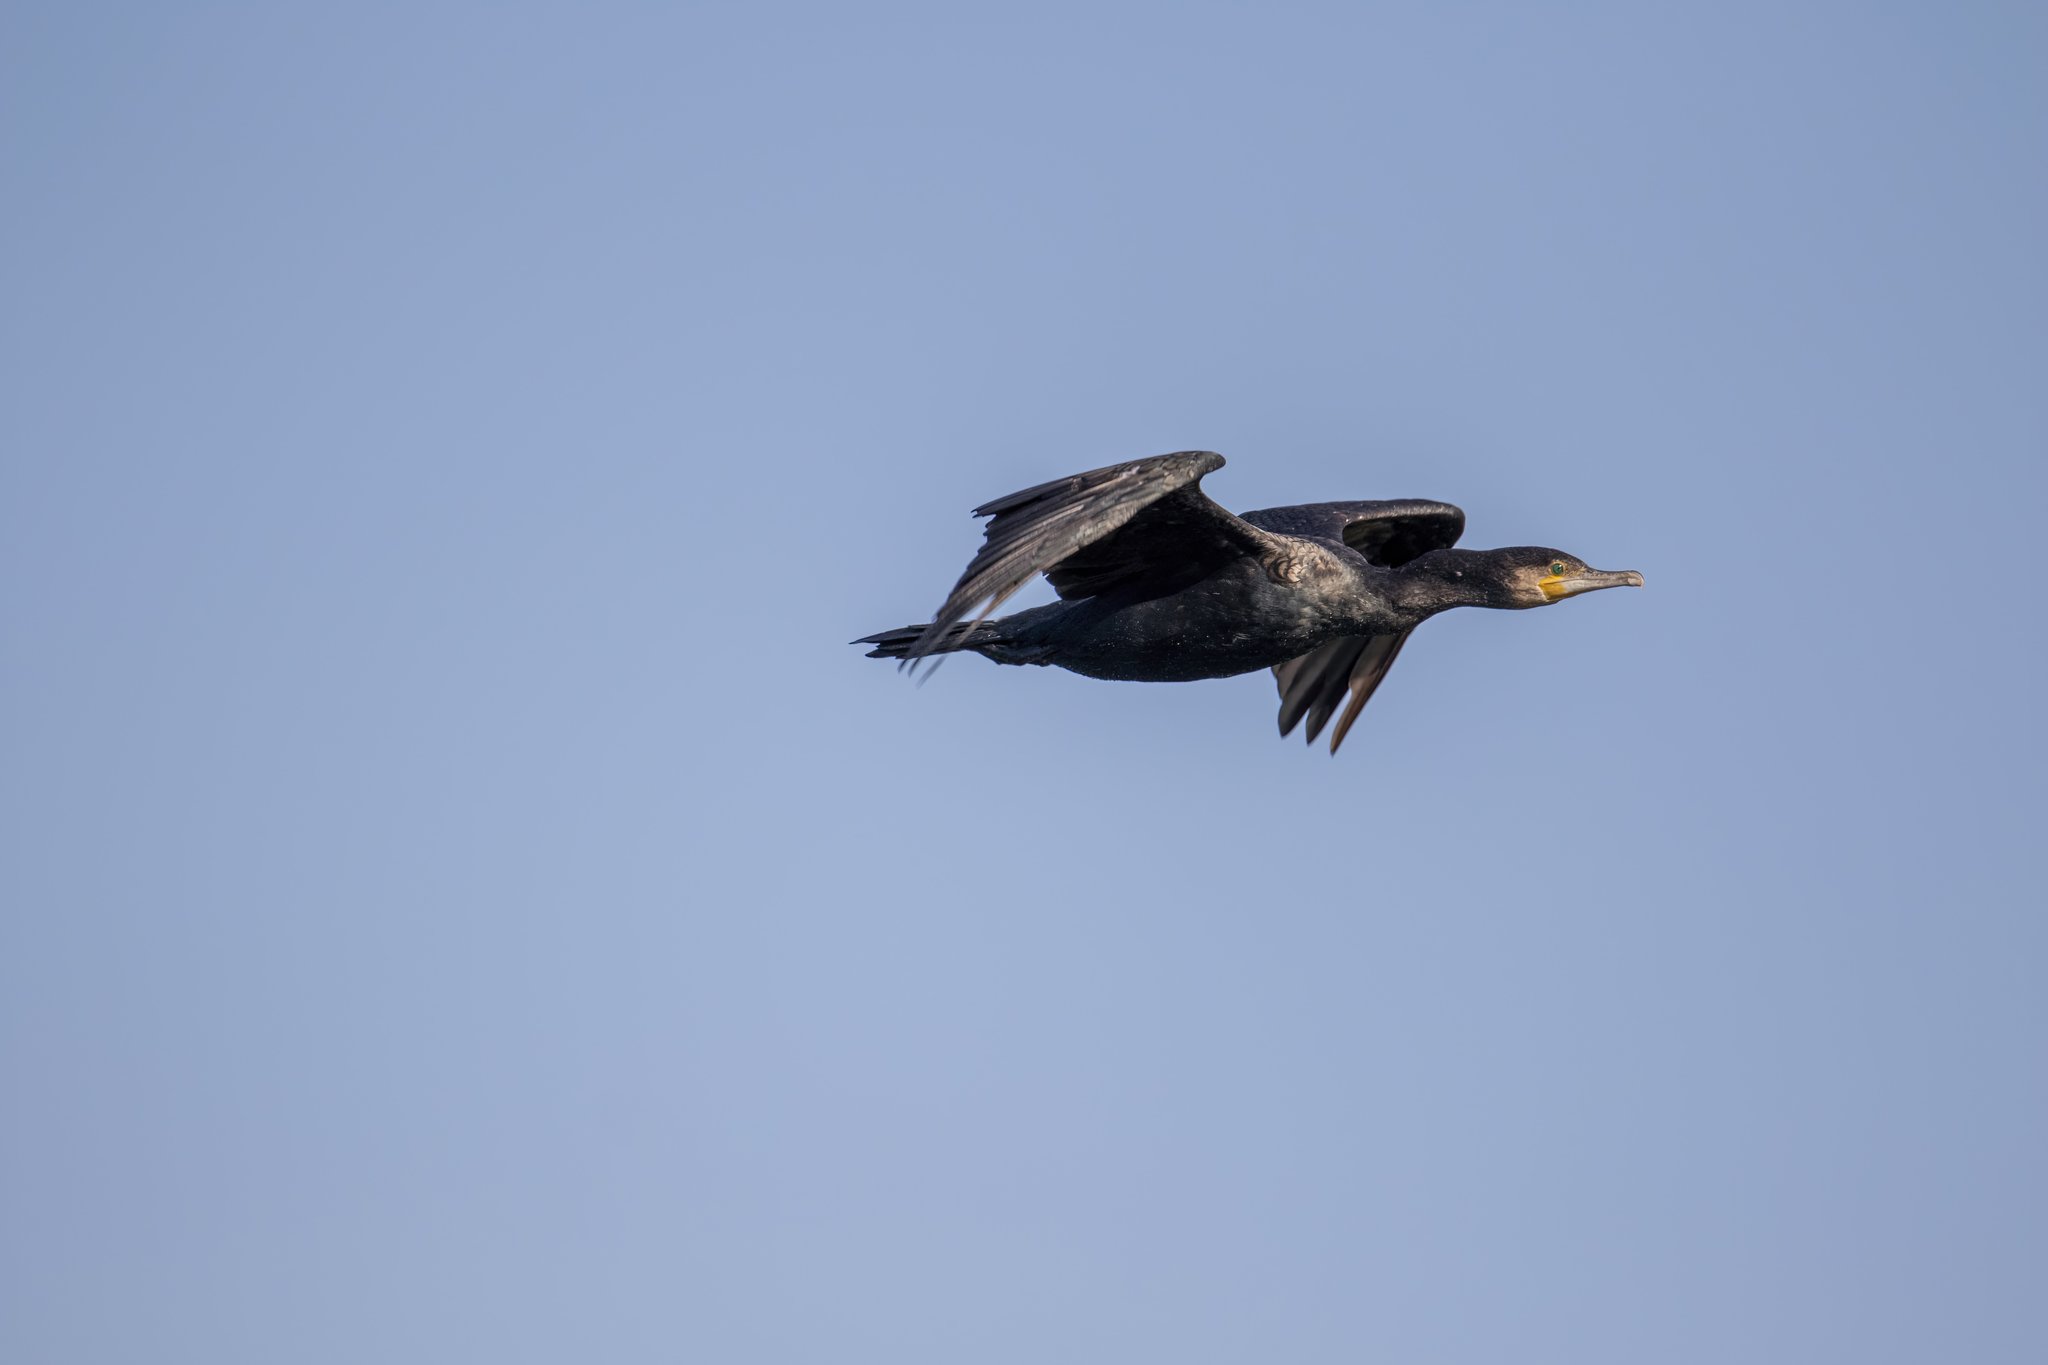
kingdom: Animalia
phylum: Chordata
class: Aves
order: Suliformes
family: Phalacrocoracidae
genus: Phalacrocorax
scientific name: Phalacrocorax carbo
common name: Great cormorant
